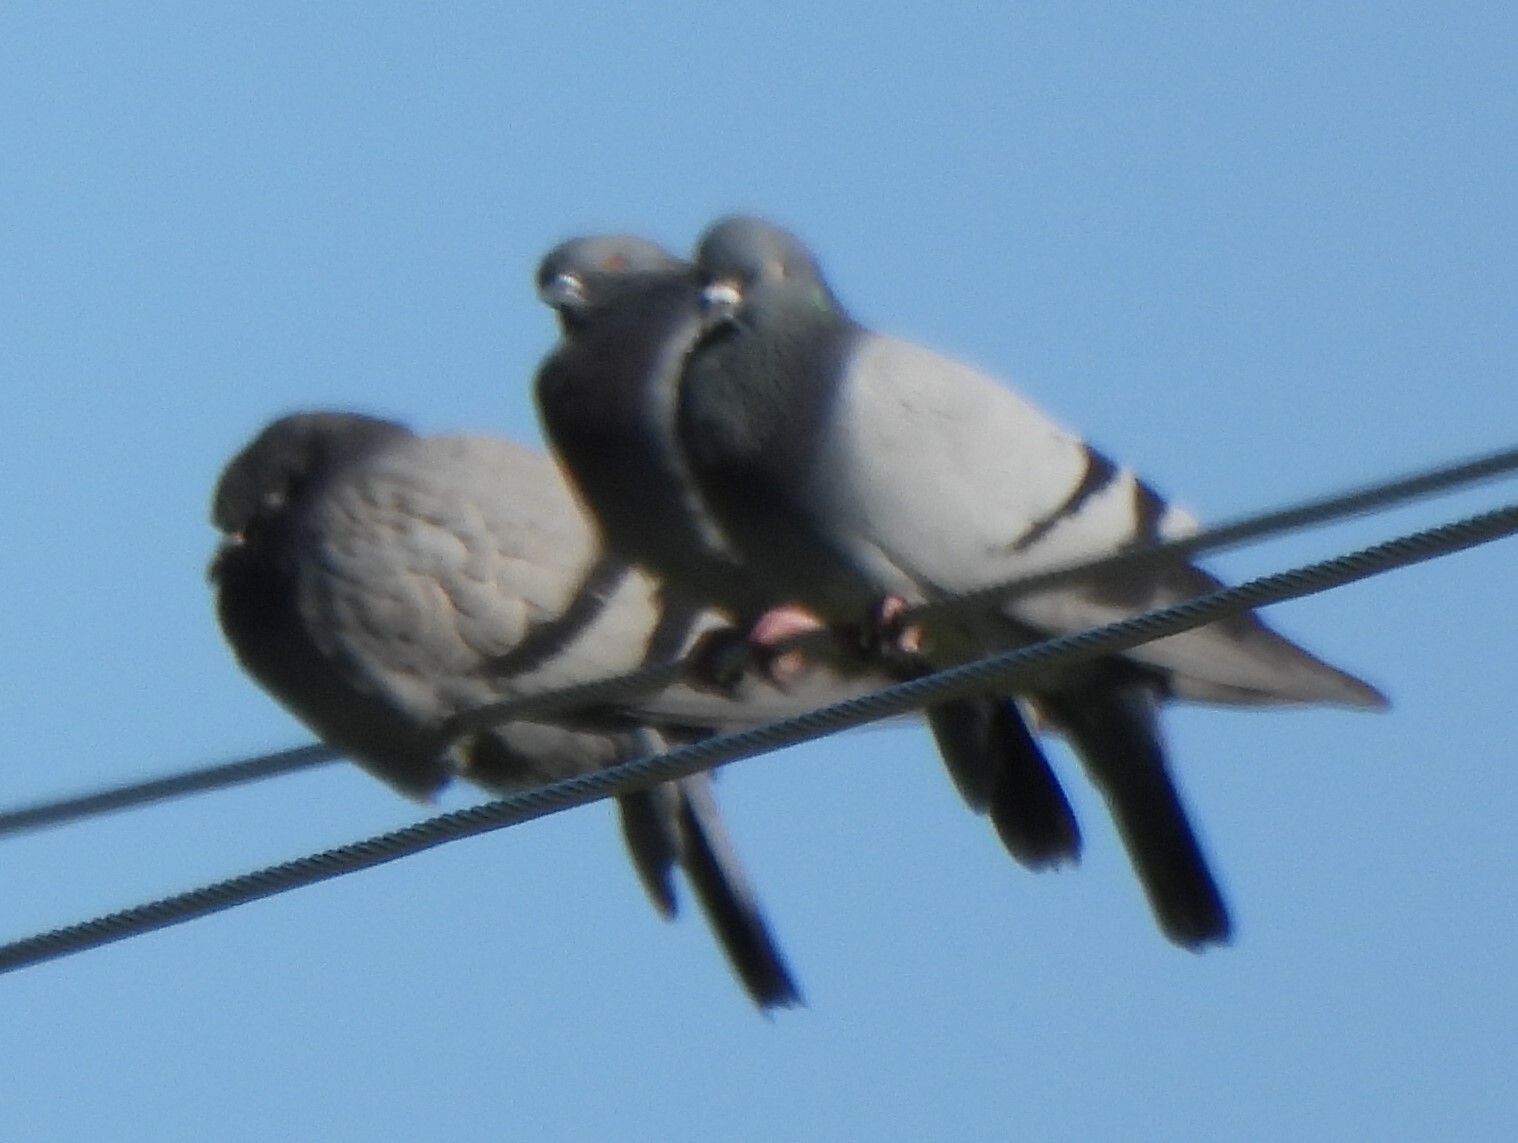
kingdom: Animalia
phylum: Chordata
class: Aves
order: Columbiformes
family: Columbidae
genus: Columba
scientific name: Columba livia
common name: Rock pigeon
